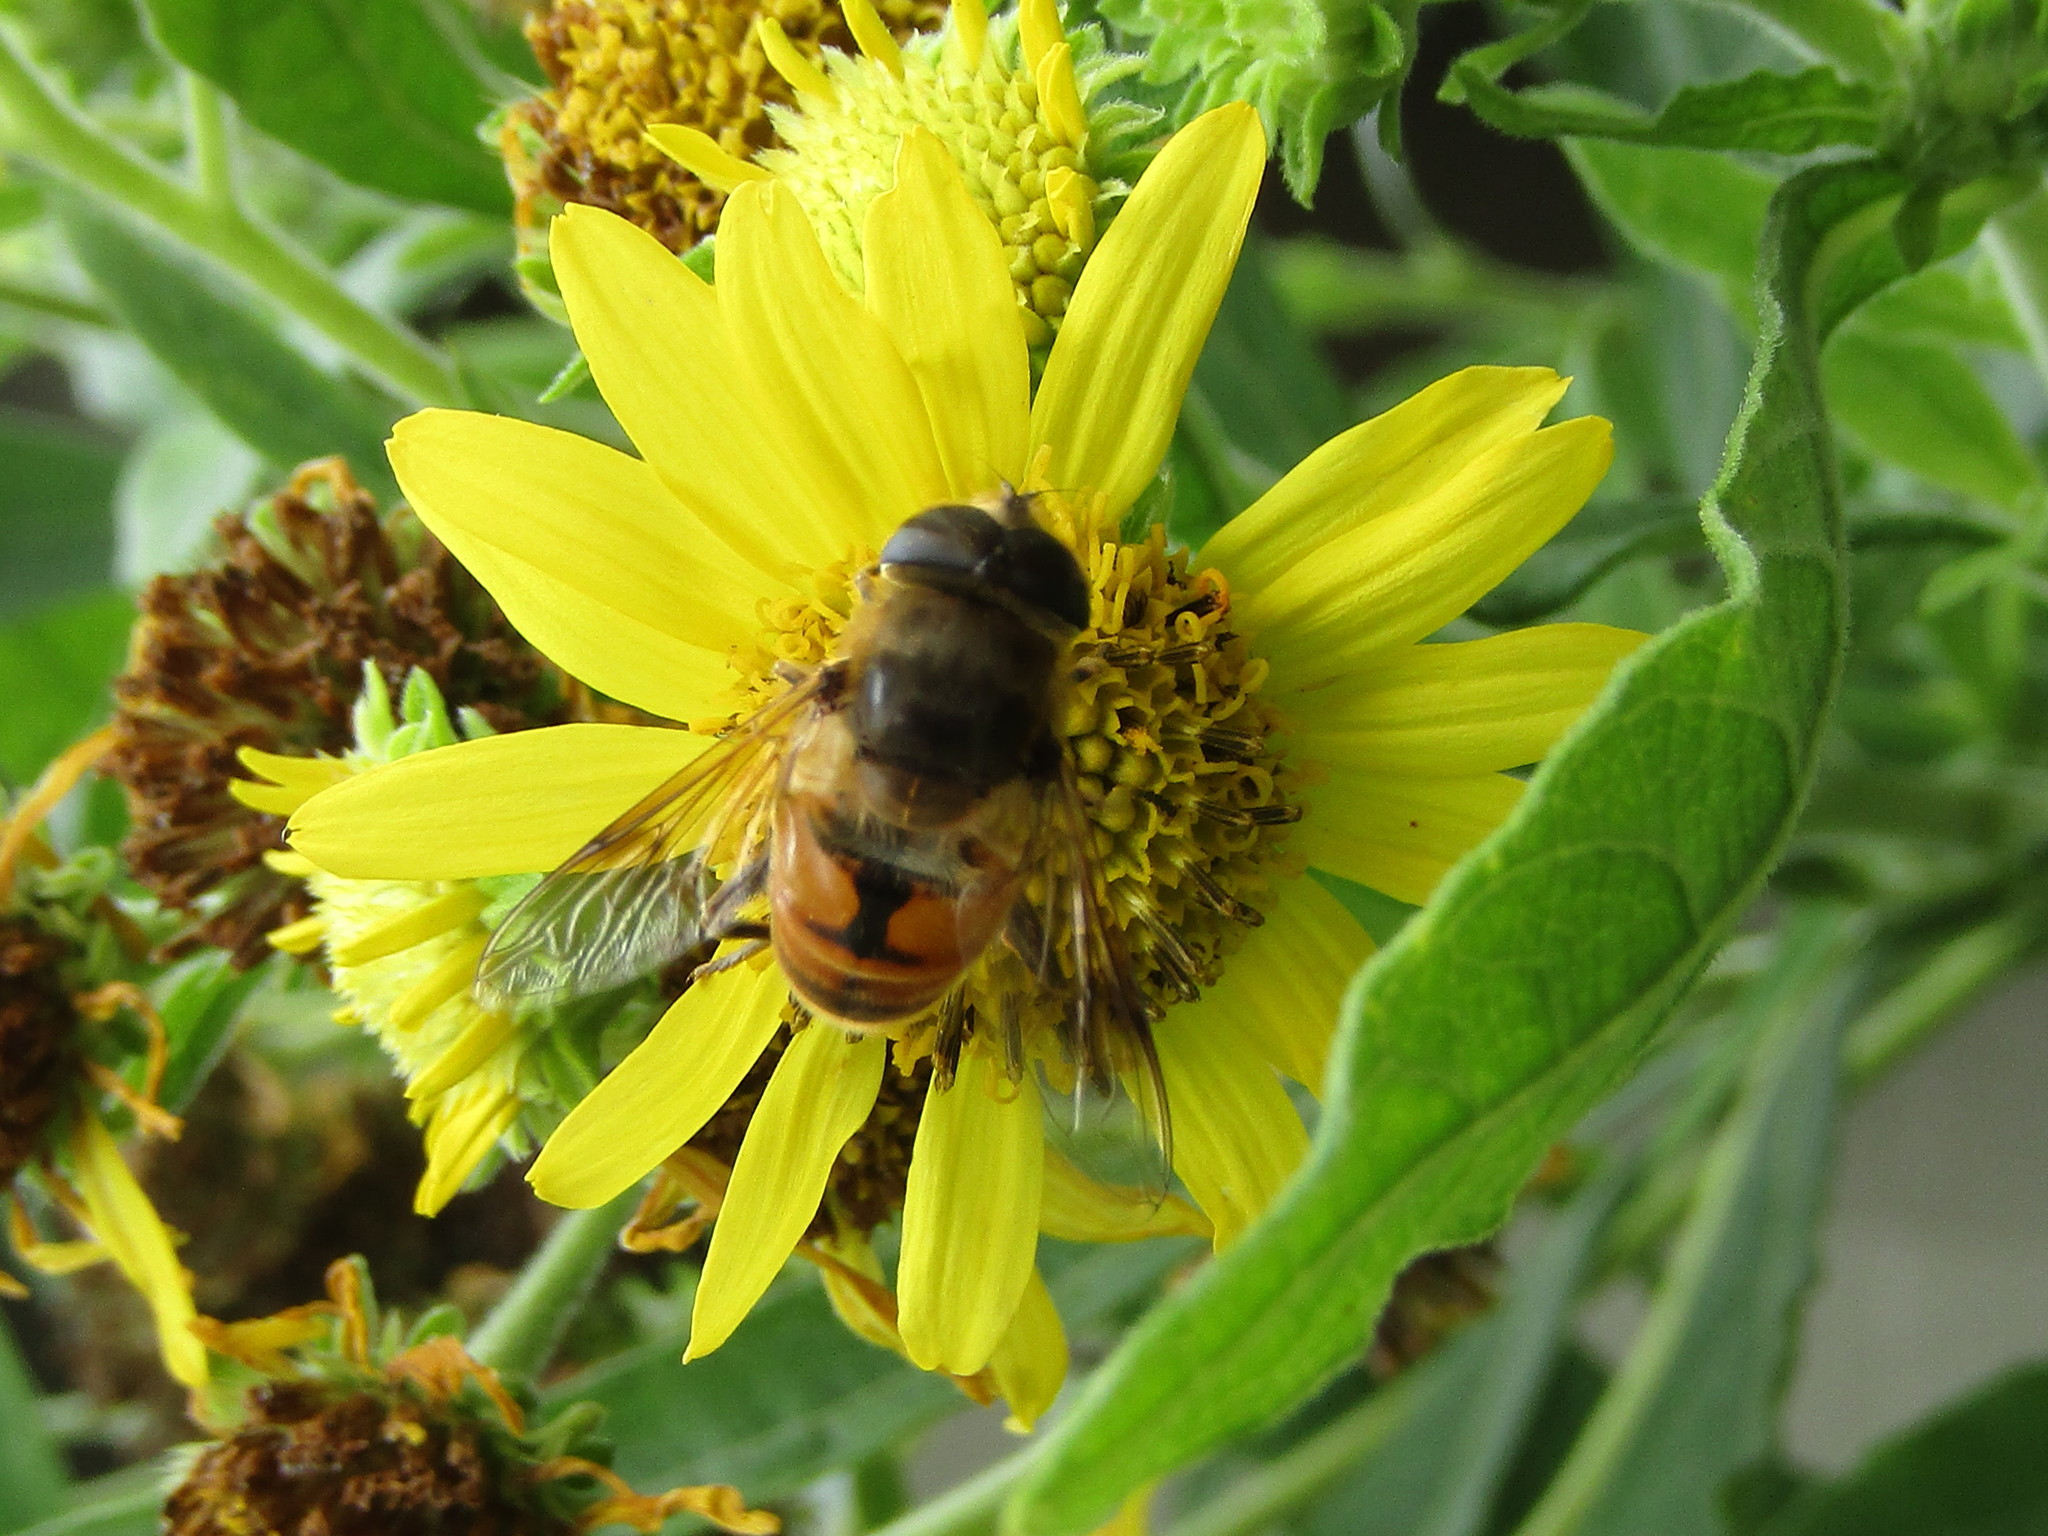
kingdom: Animalia
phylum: Arthropoda
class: Insecta
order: Diptera
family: Syrphidae
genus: Eristalis
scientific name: Eristalis tenax
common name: Drone fly
